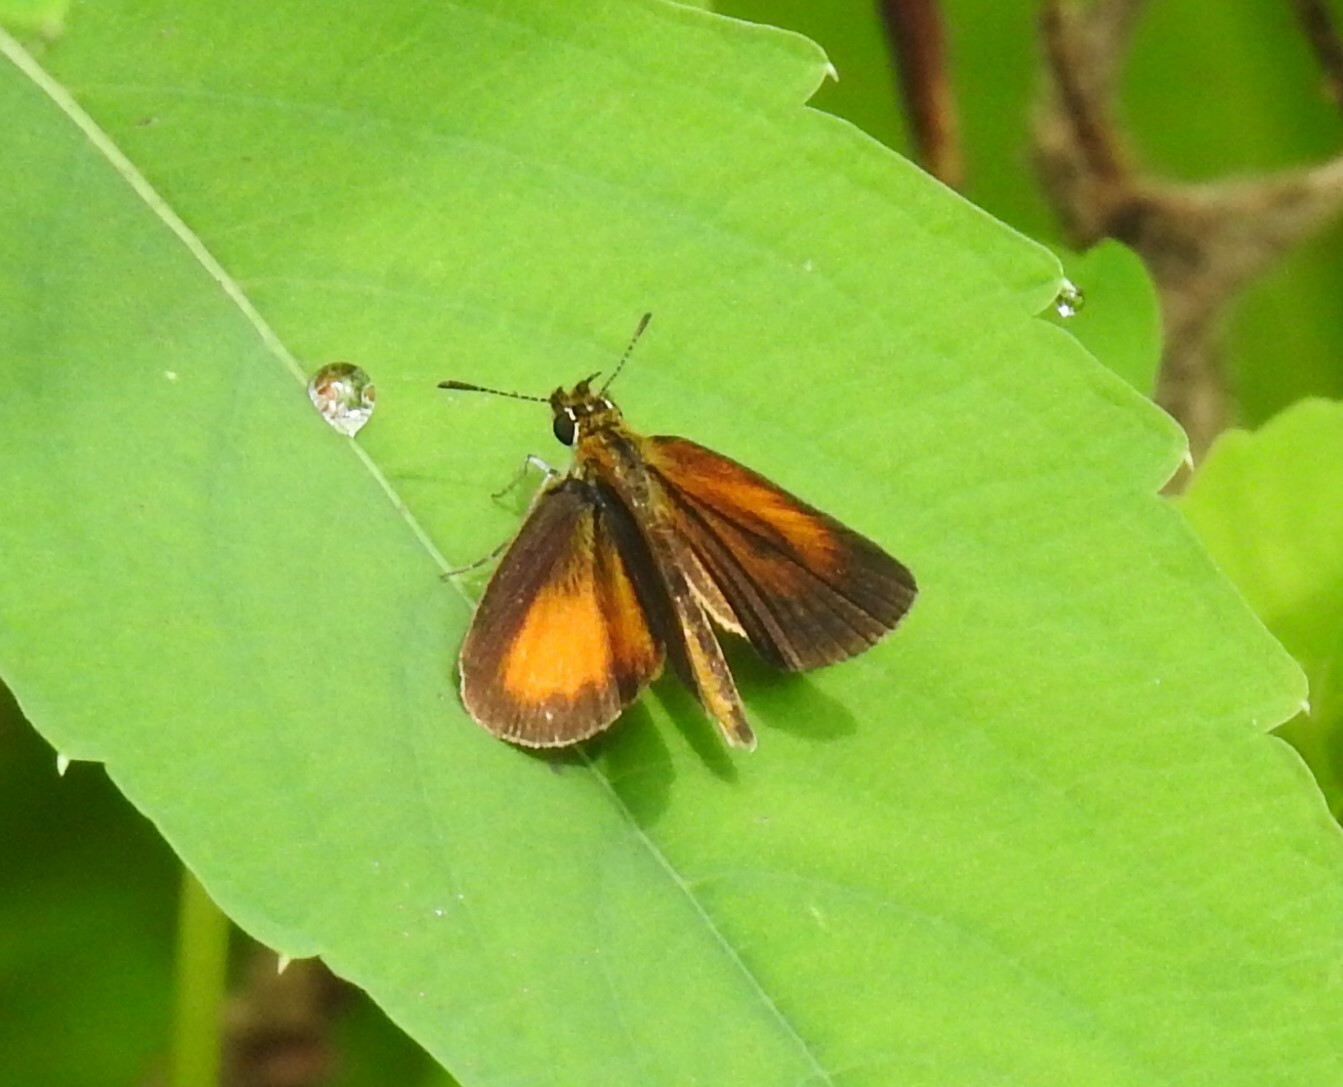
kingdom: Animalia
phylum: Arthropoda
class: Insecta
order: Lepidoptera
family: Hesperiidae
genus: Ancyloxypha
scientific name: Ancyloxypha numitor
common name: Least skipper
